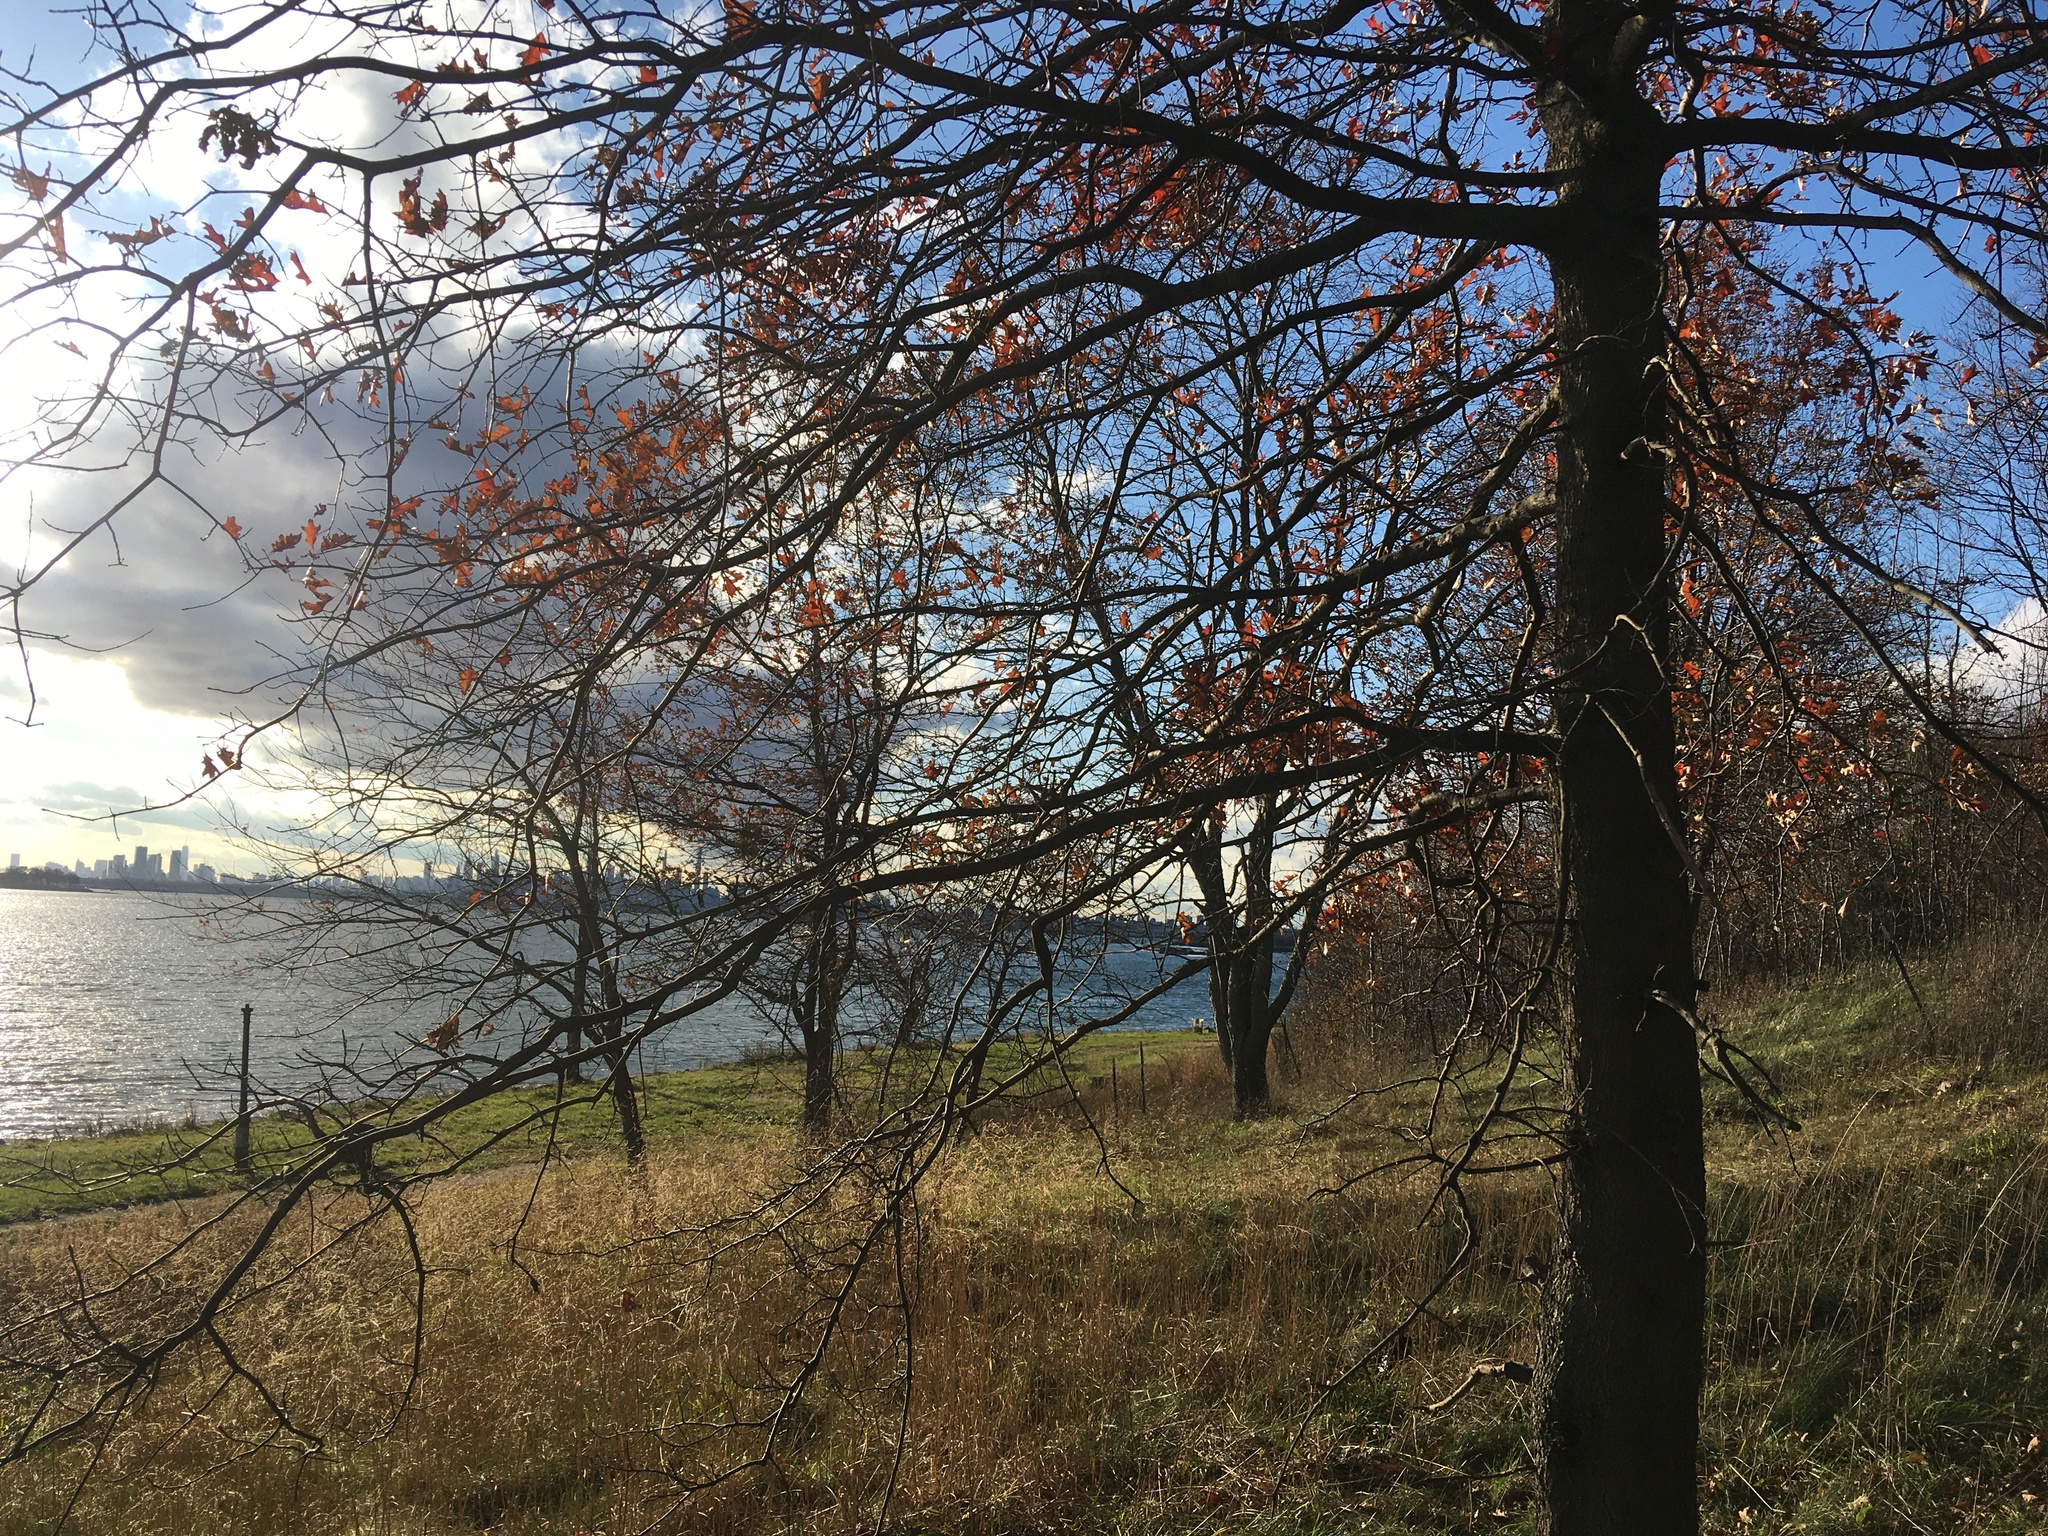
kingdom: Plantae
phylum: Tracheophyta
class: Magnoliopsida
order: Fagales
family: Fagaceae
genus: Quercus
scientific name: Quercus palustris
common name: Pin oak
